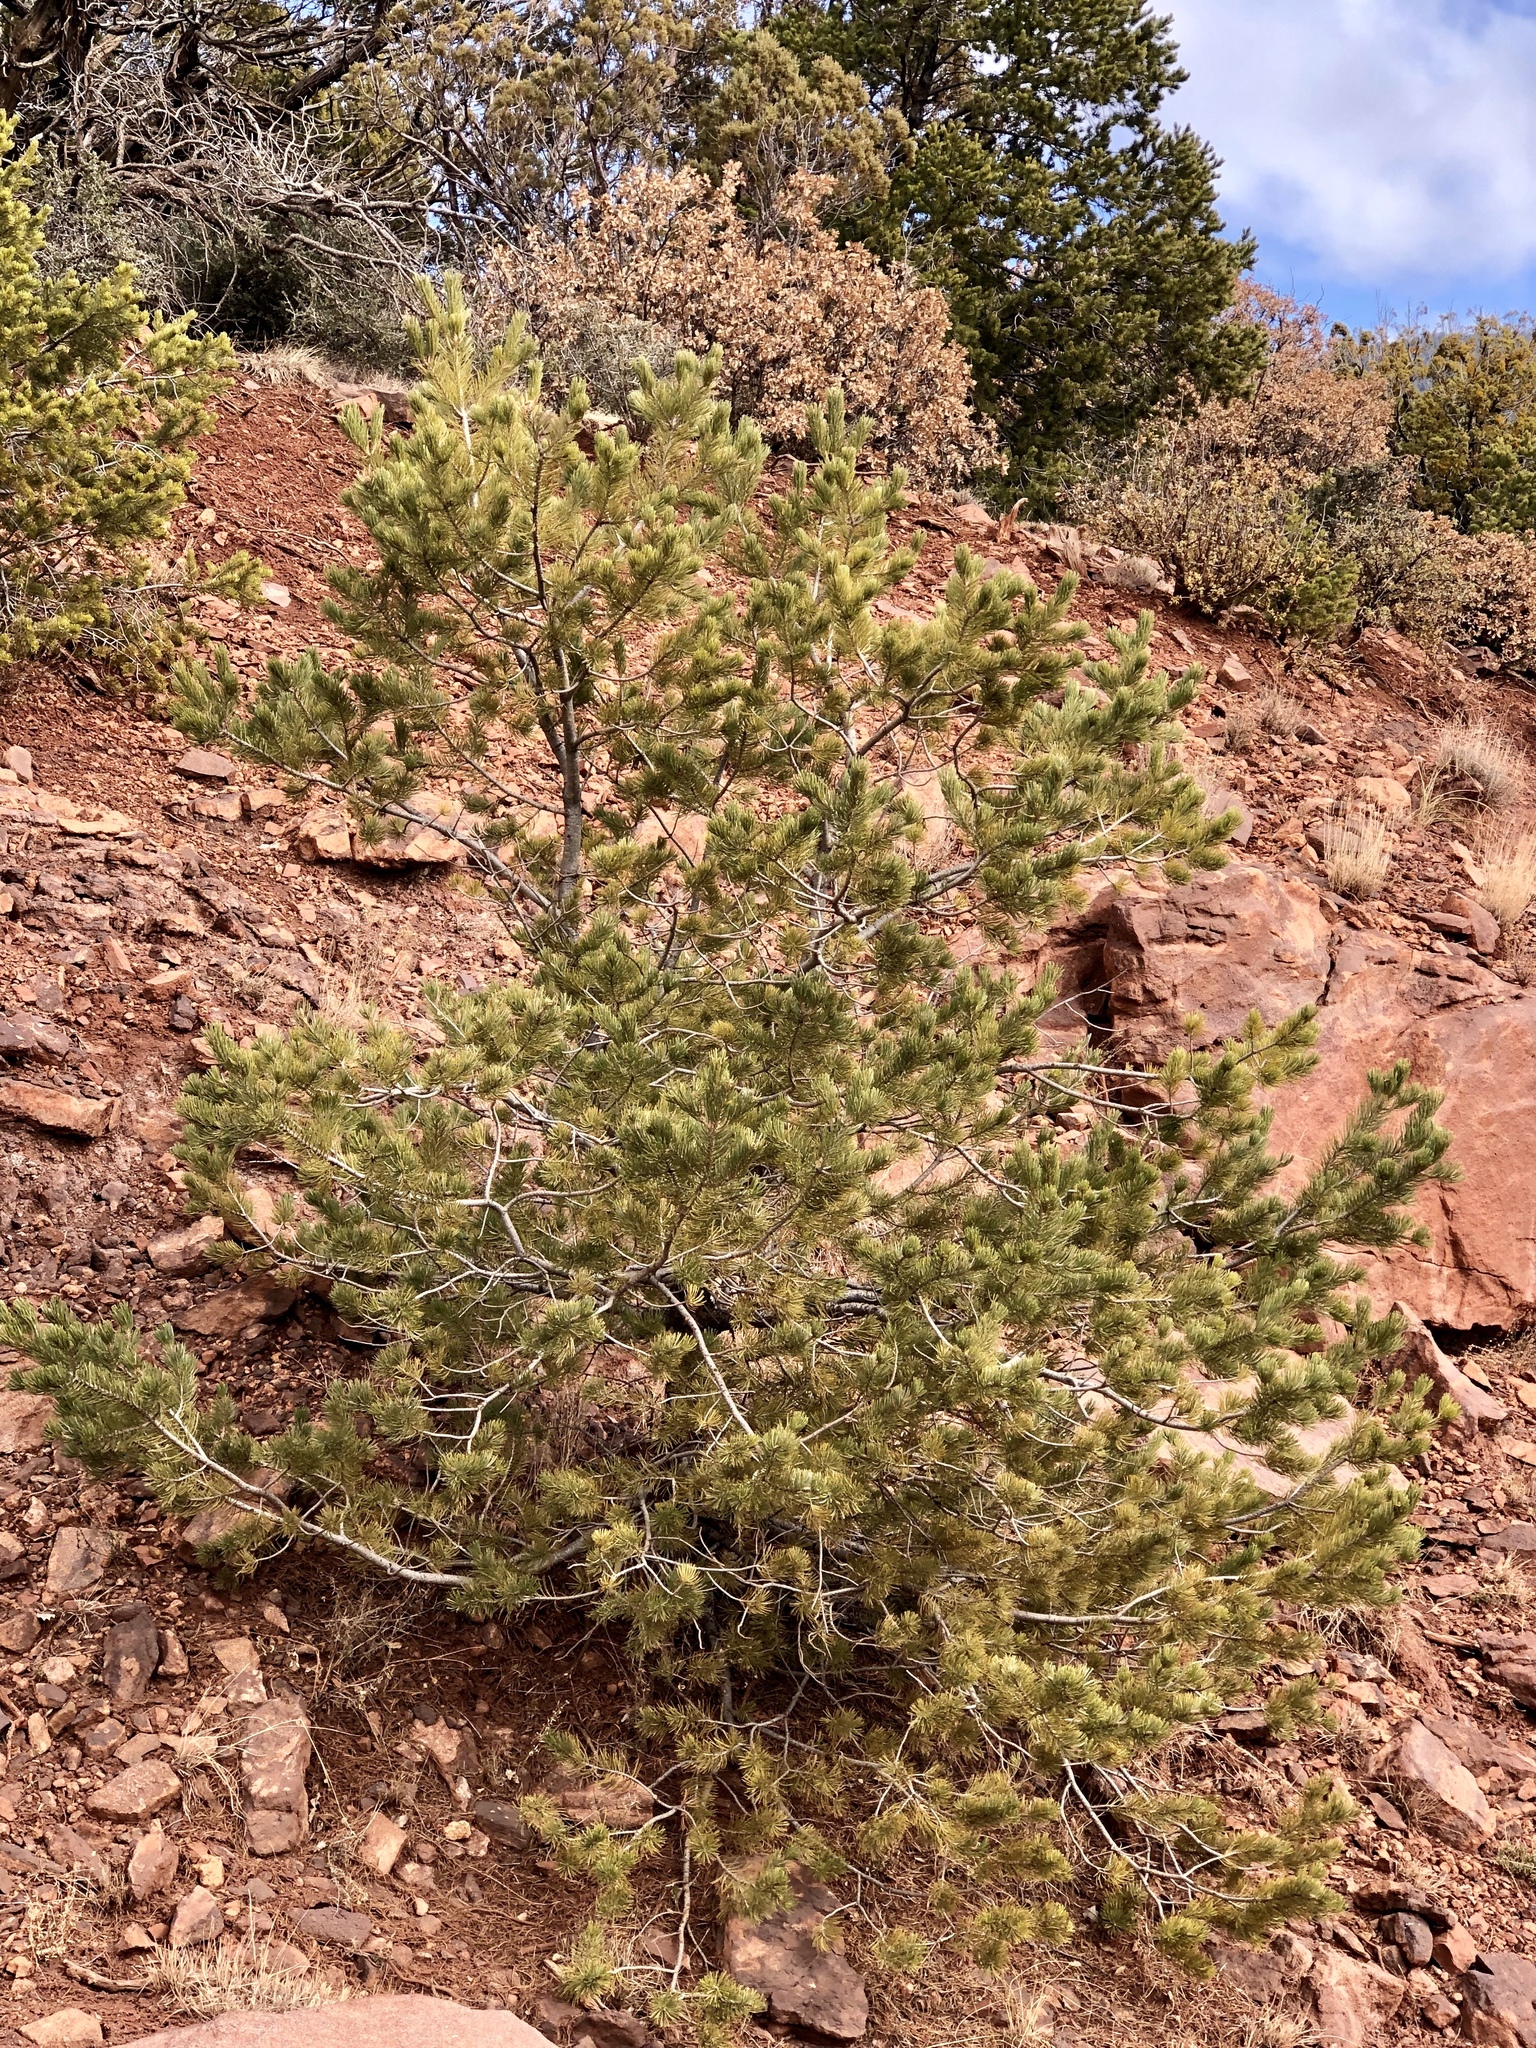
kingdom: Plantae
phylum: Tracheophyta
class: Pinopsida
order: Pinales
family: Pinaceae
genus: Pinus
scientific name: Pinus edulis
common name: Colorado pinyon
